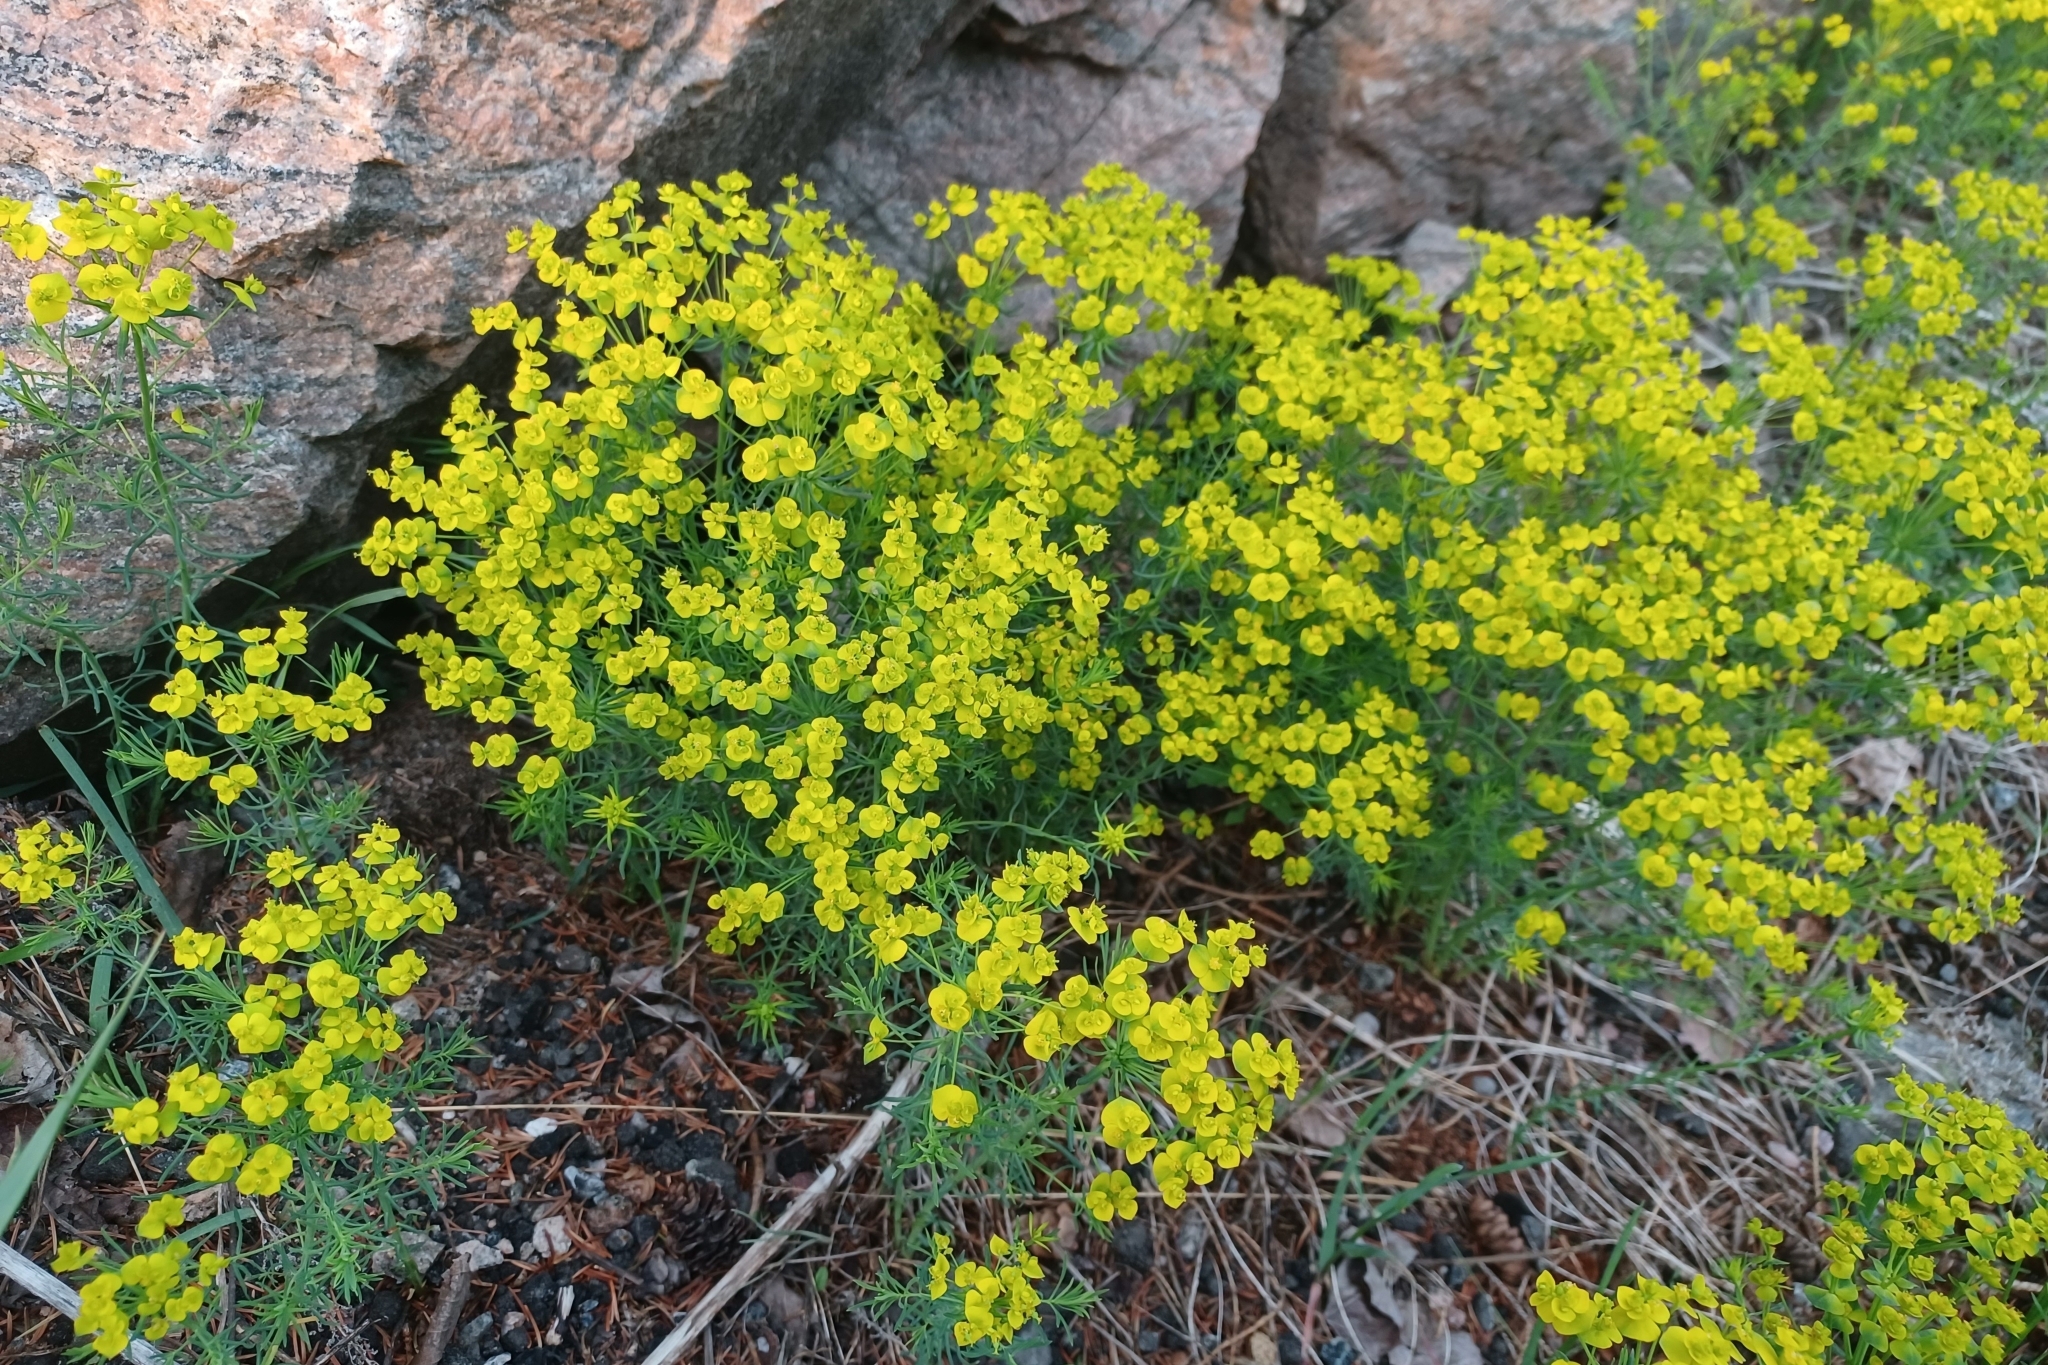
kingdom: Plantae
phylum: Tracheophyta
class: Magnoliopsida
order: Malpighiales
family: Euphorbiaceae
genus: Euphorbia
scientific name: Euphorbia cyparissias
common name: Cypress spurge
